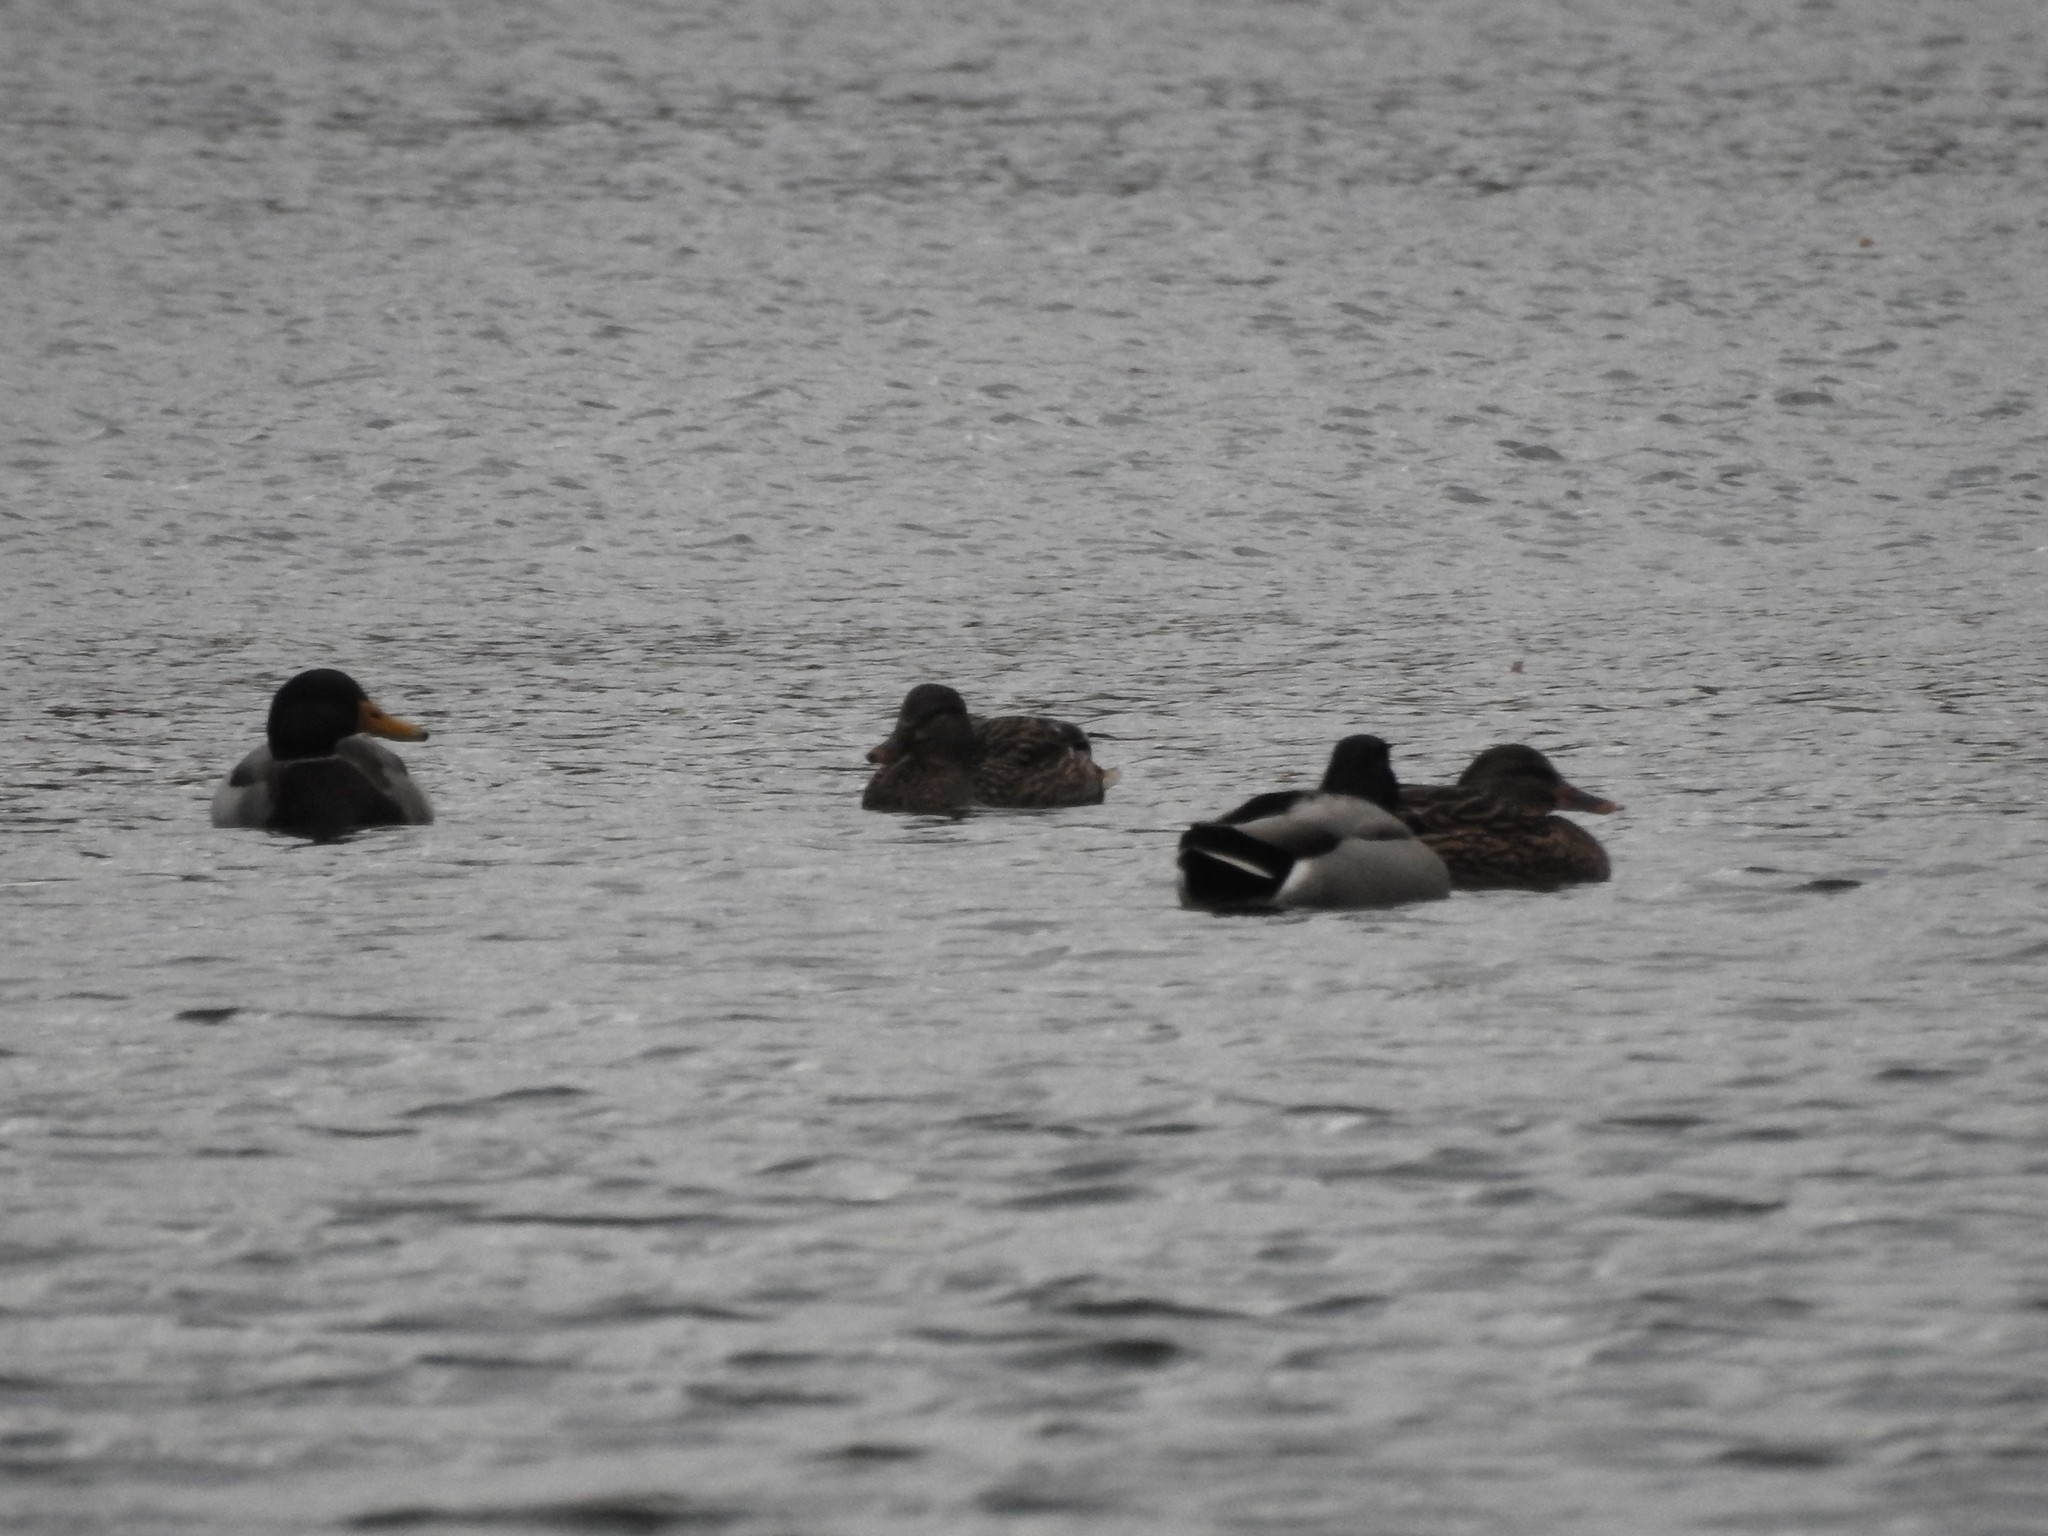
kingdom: Animalia
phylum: Chordata
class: Aves
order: Anseriformes
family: Anatidae
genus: Anas
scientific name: Anas platyrhynchos
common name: Mallard
